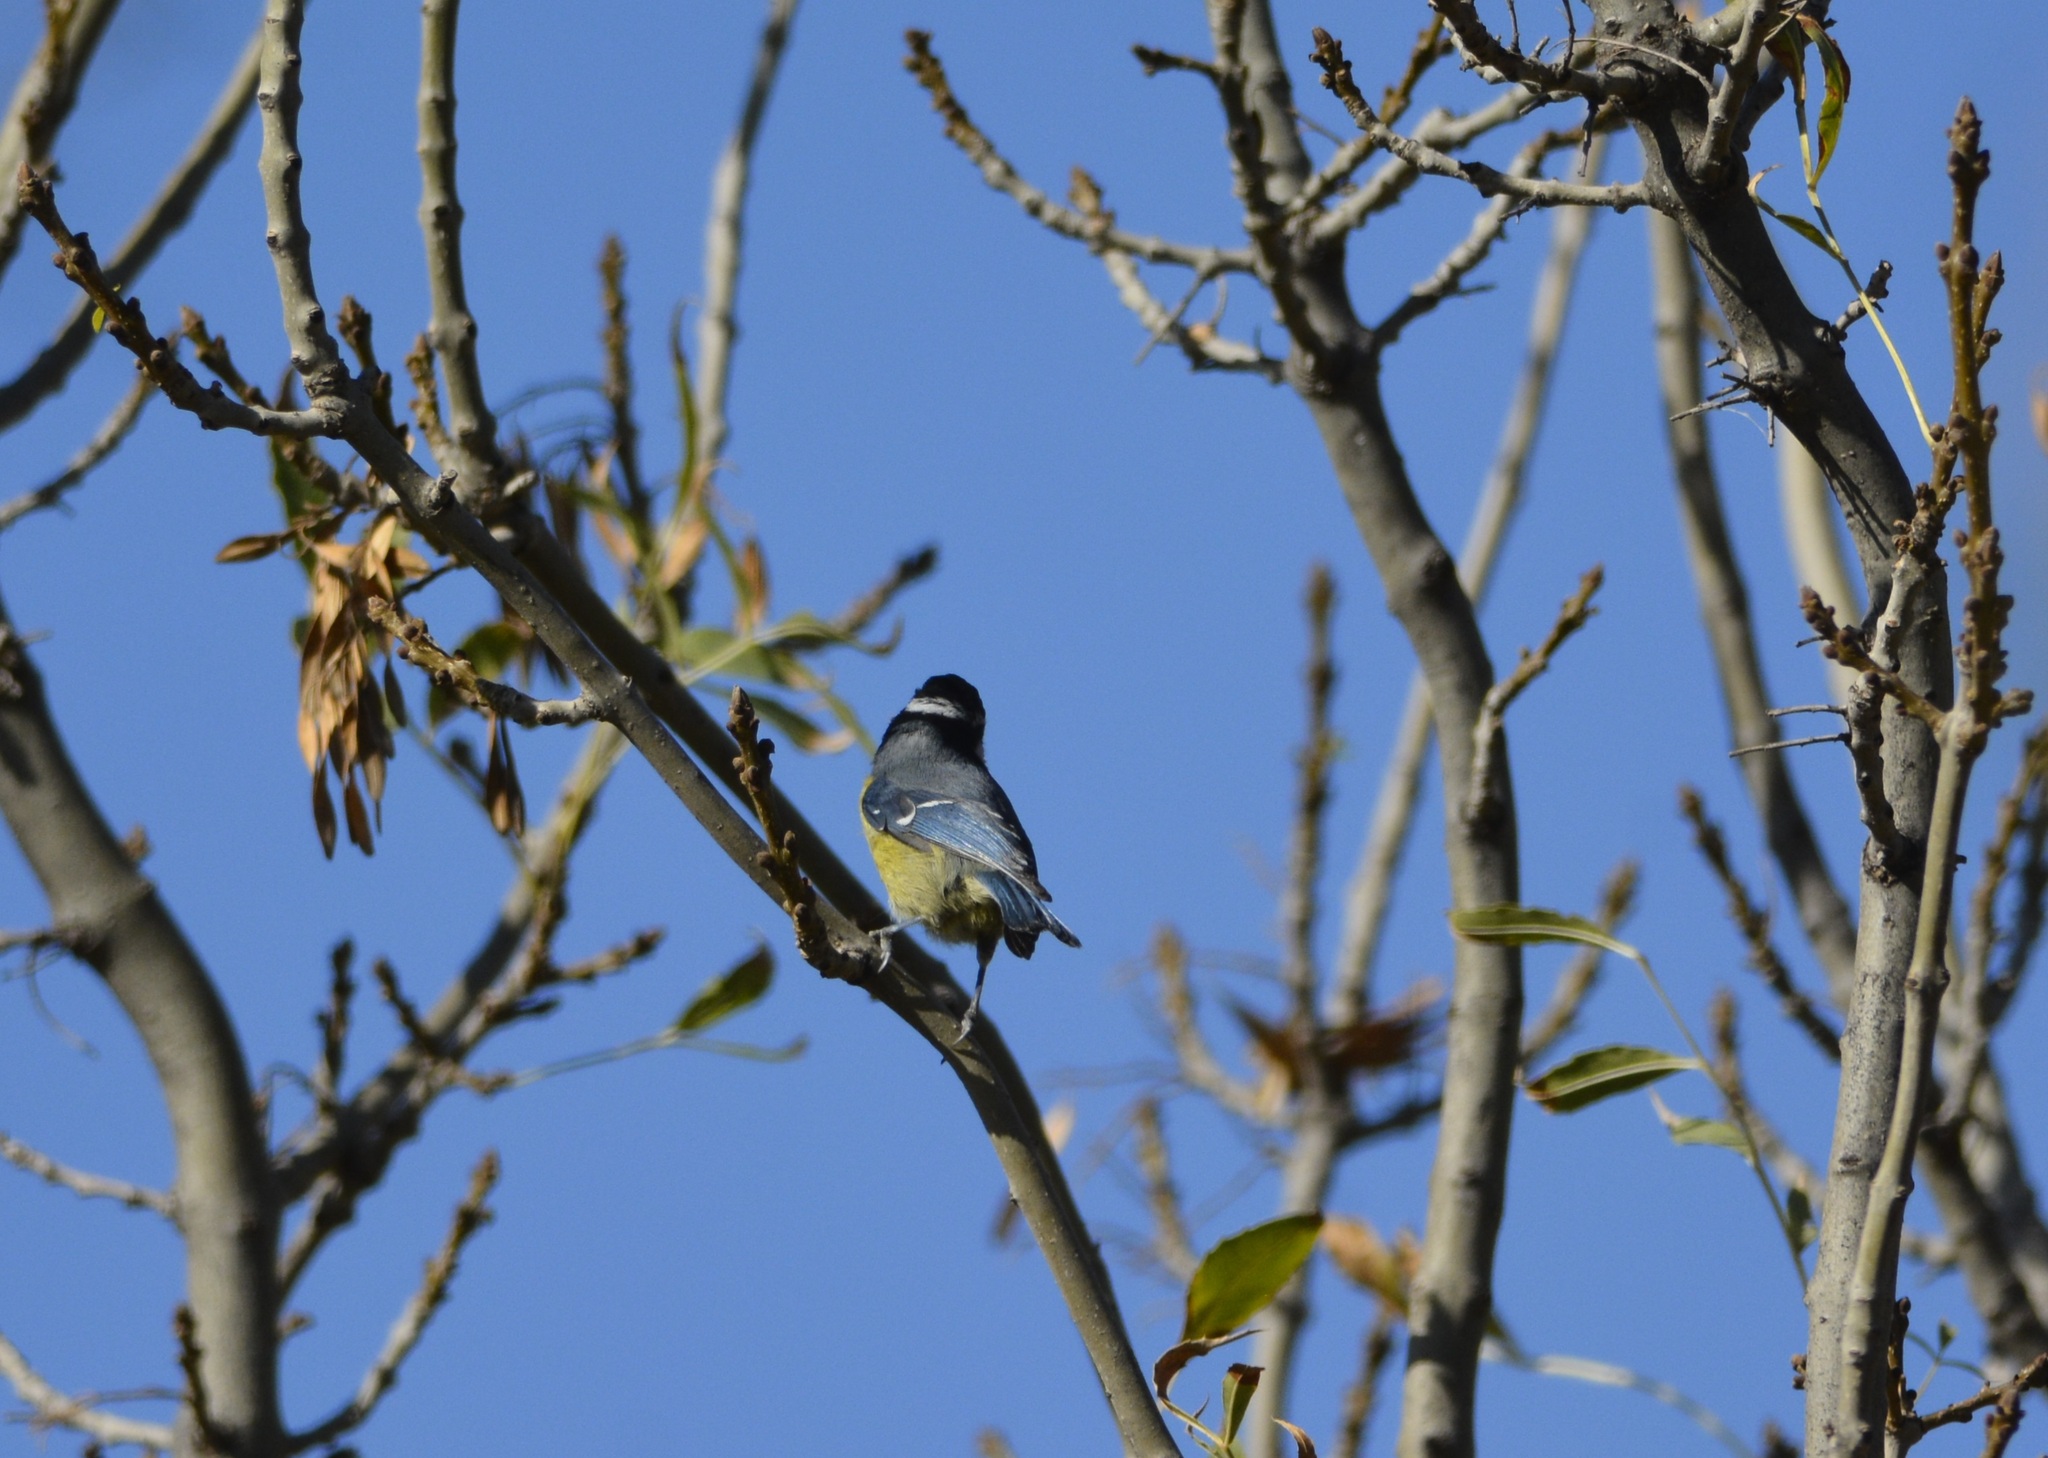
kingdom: Animalia
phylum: Chordata
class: Aves
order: Passeriformes
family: Paridae
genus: Cyanistes
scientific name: Cyanistes teneriffae
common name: African blue tit
